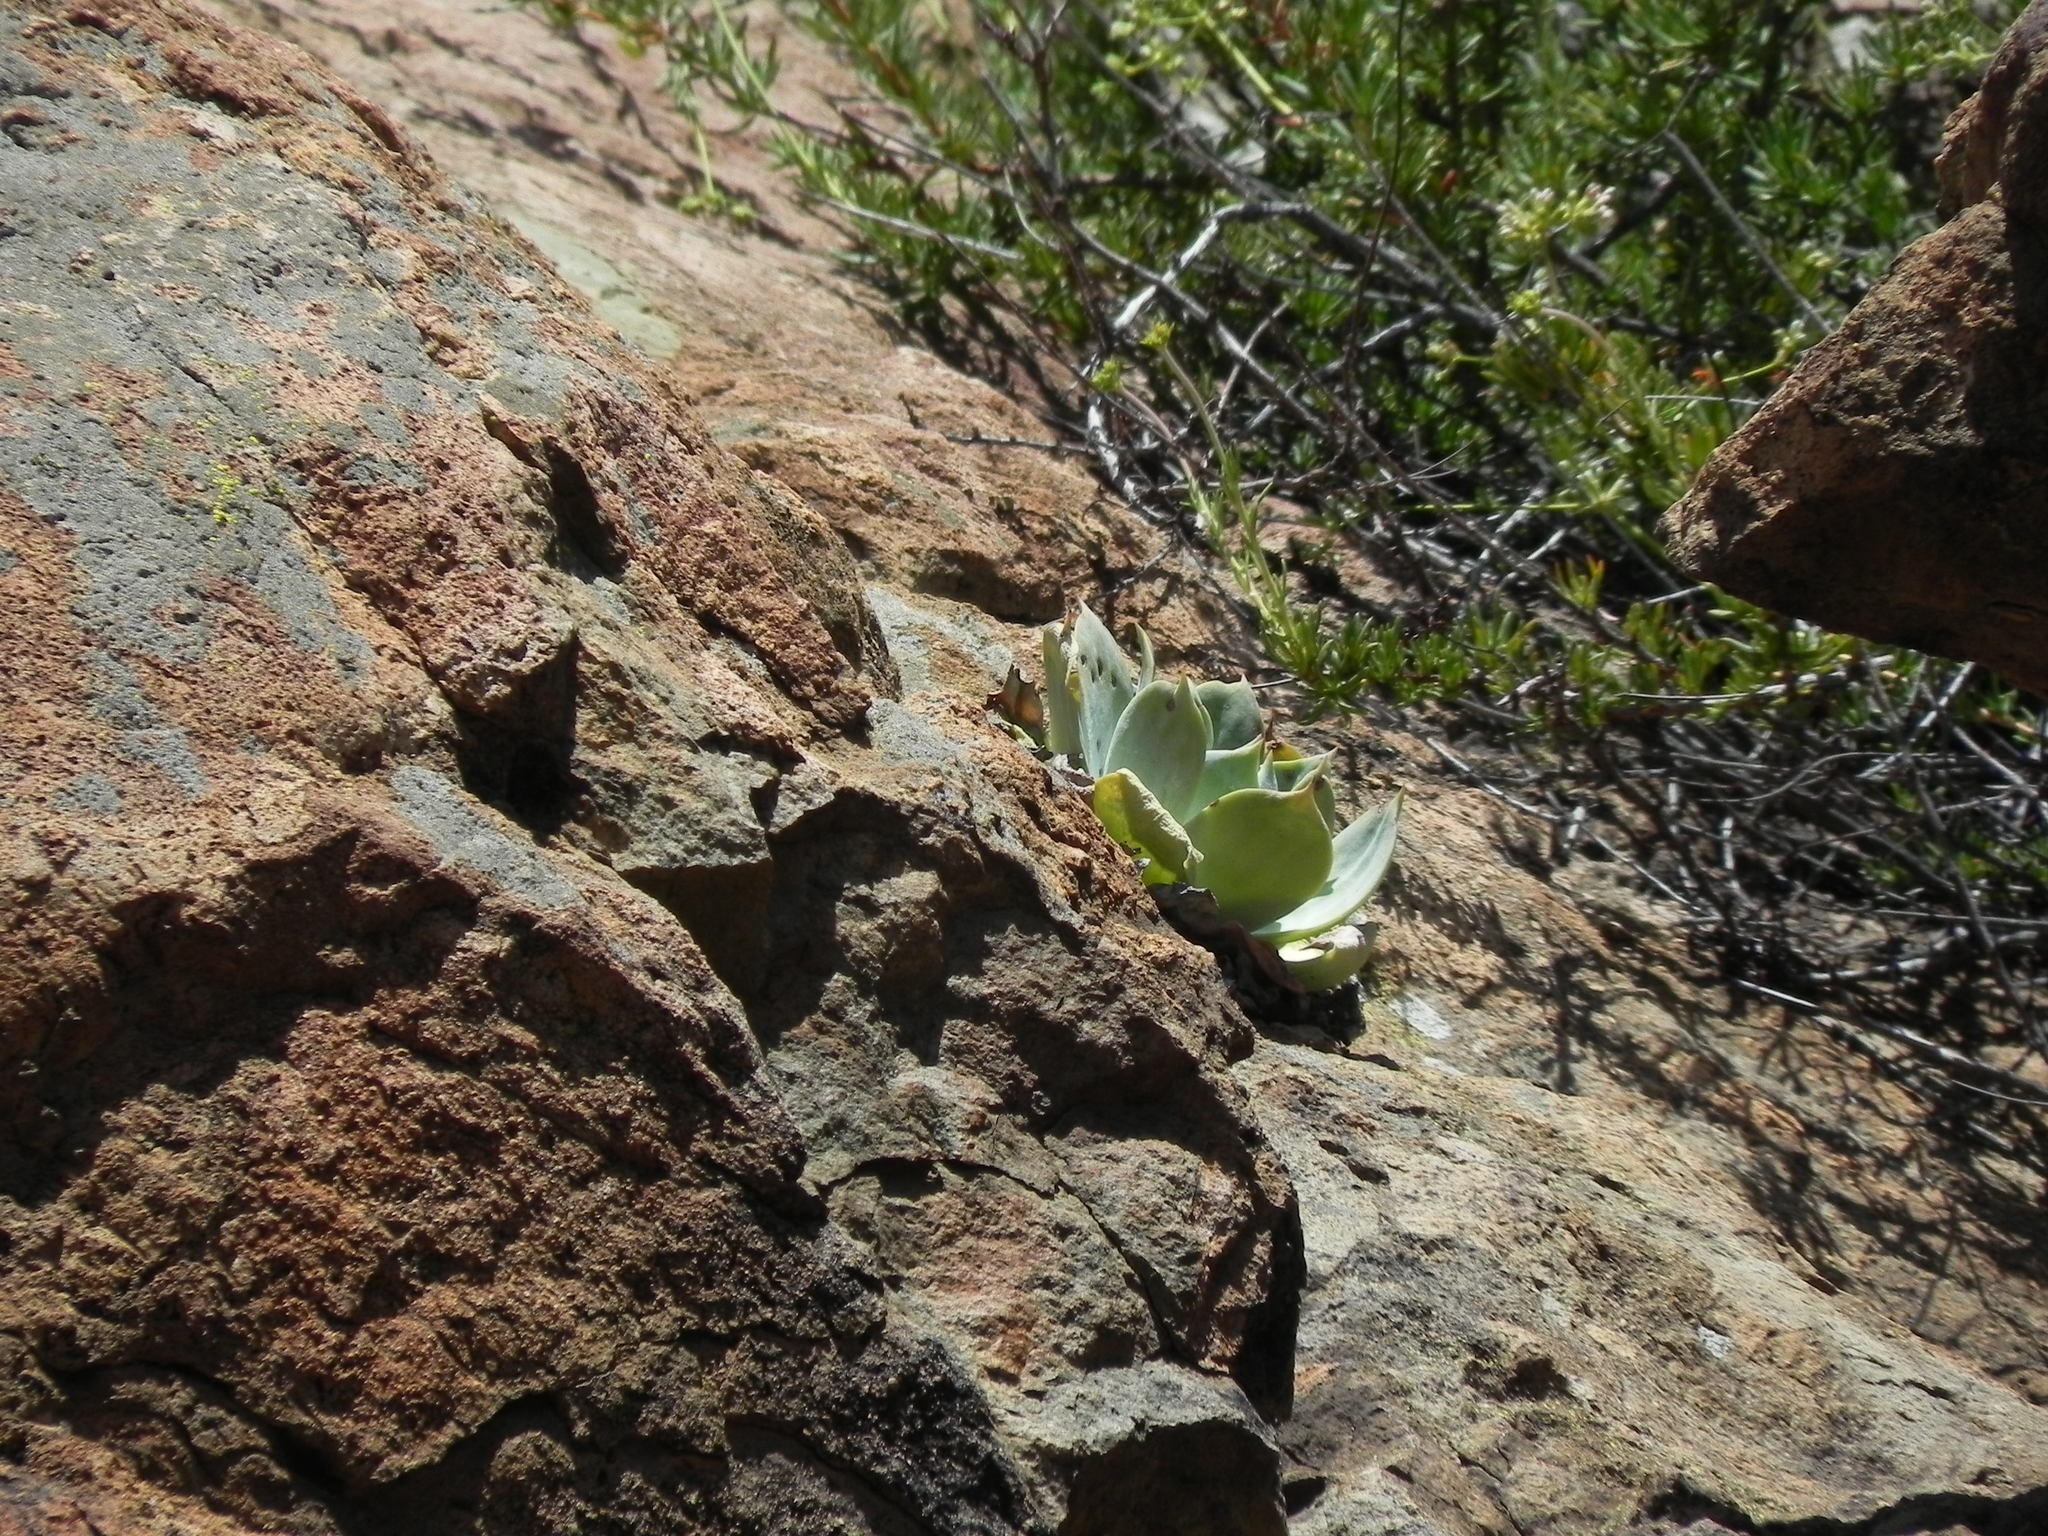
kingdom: Plantae
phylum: Tracheophyta
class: Magnoliopsida
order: Saxifragales
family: Crassulaceae
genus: Dudleya
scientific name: Dudleya pulverulenta
